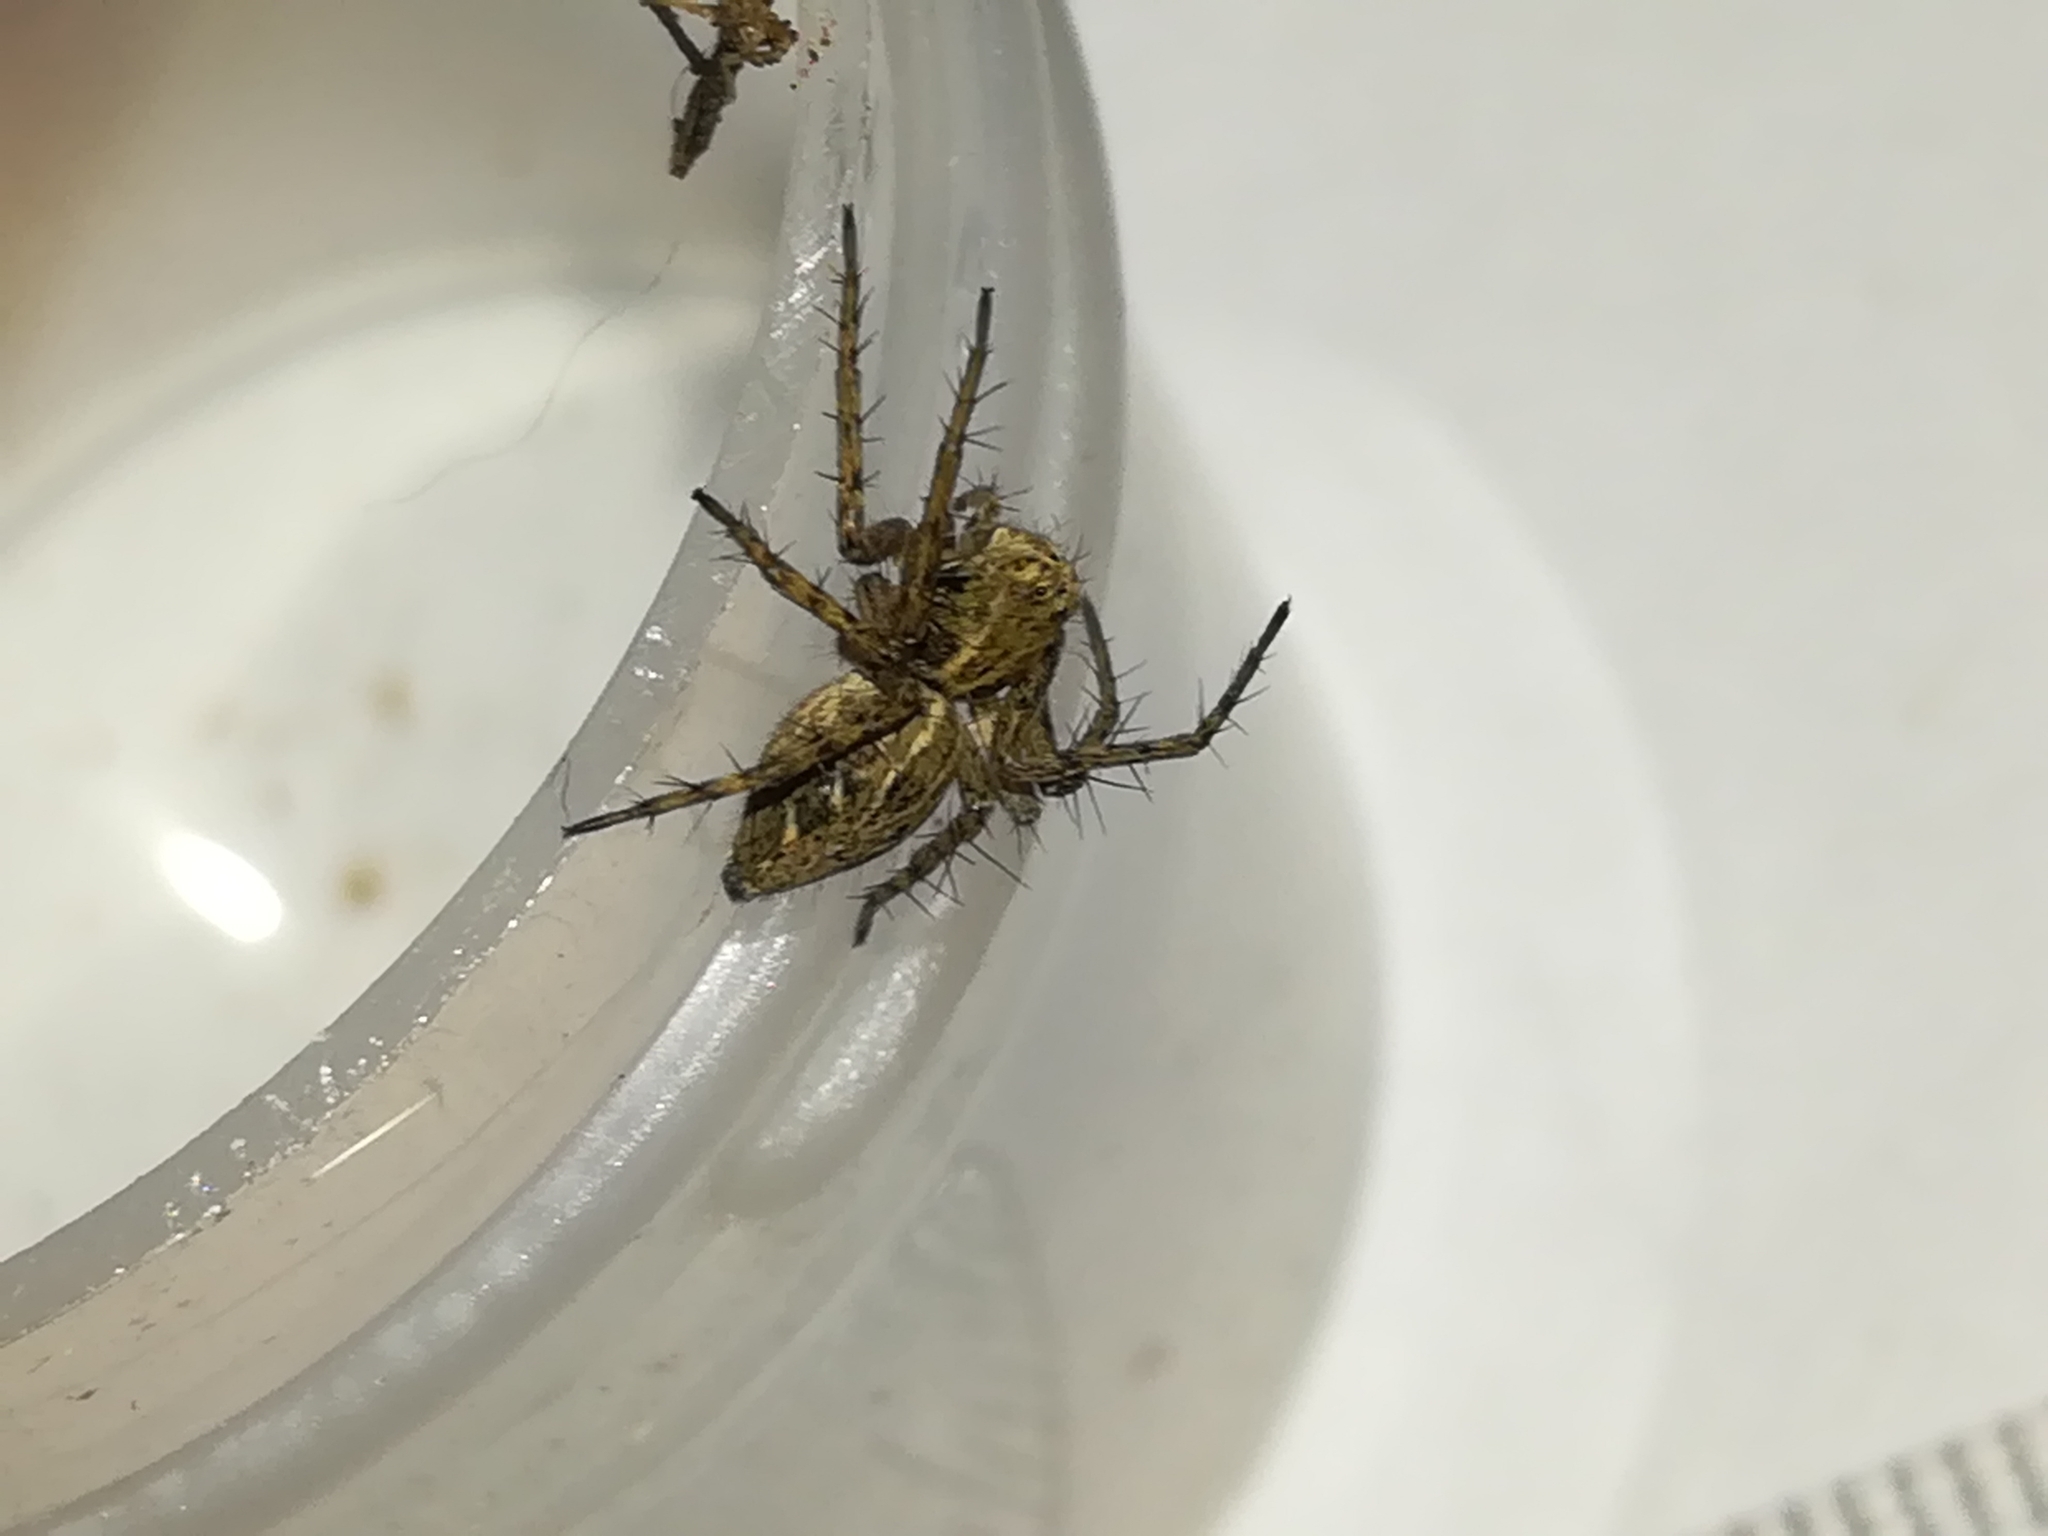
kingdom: Animalia
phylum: Arthropoda
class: Arachnida
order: Araneae
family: Oxyopidae
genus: Oxyopes
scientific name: Oxyopes heterophthalmus
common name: Lynx spider
